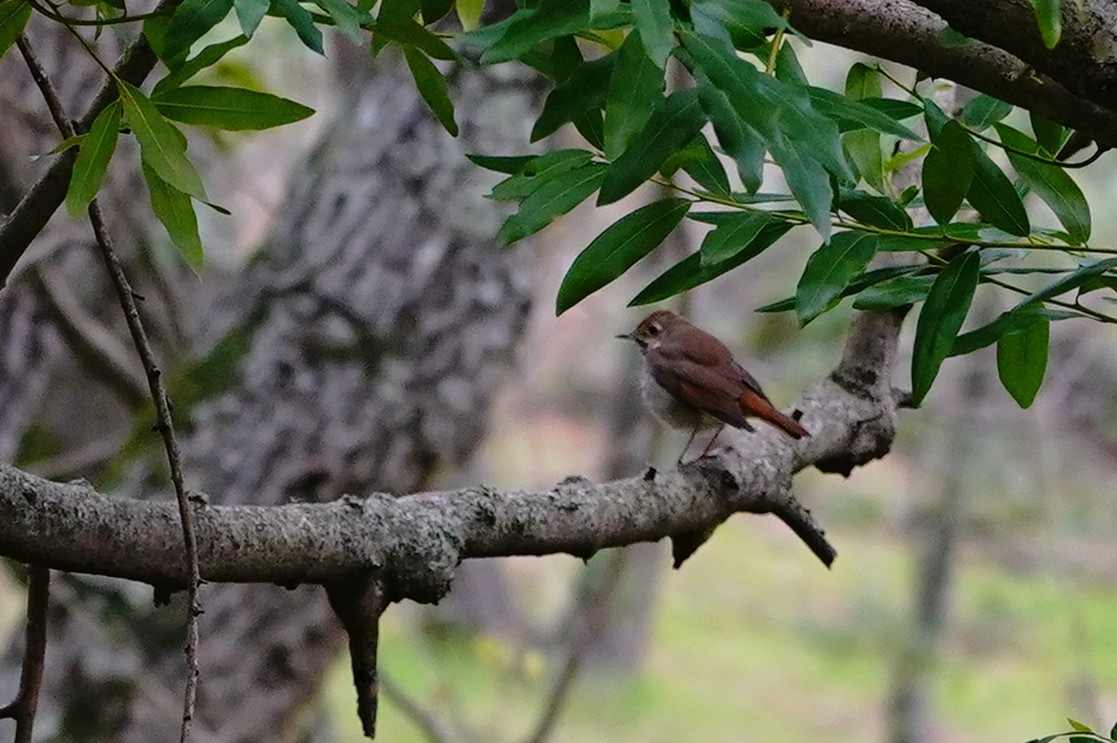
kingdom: Animalia
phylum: Chordata
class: Aves
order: Passeriformes
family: Turdidae
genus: Catharus
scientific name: Catharus guttatus
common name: Hermit thrush
